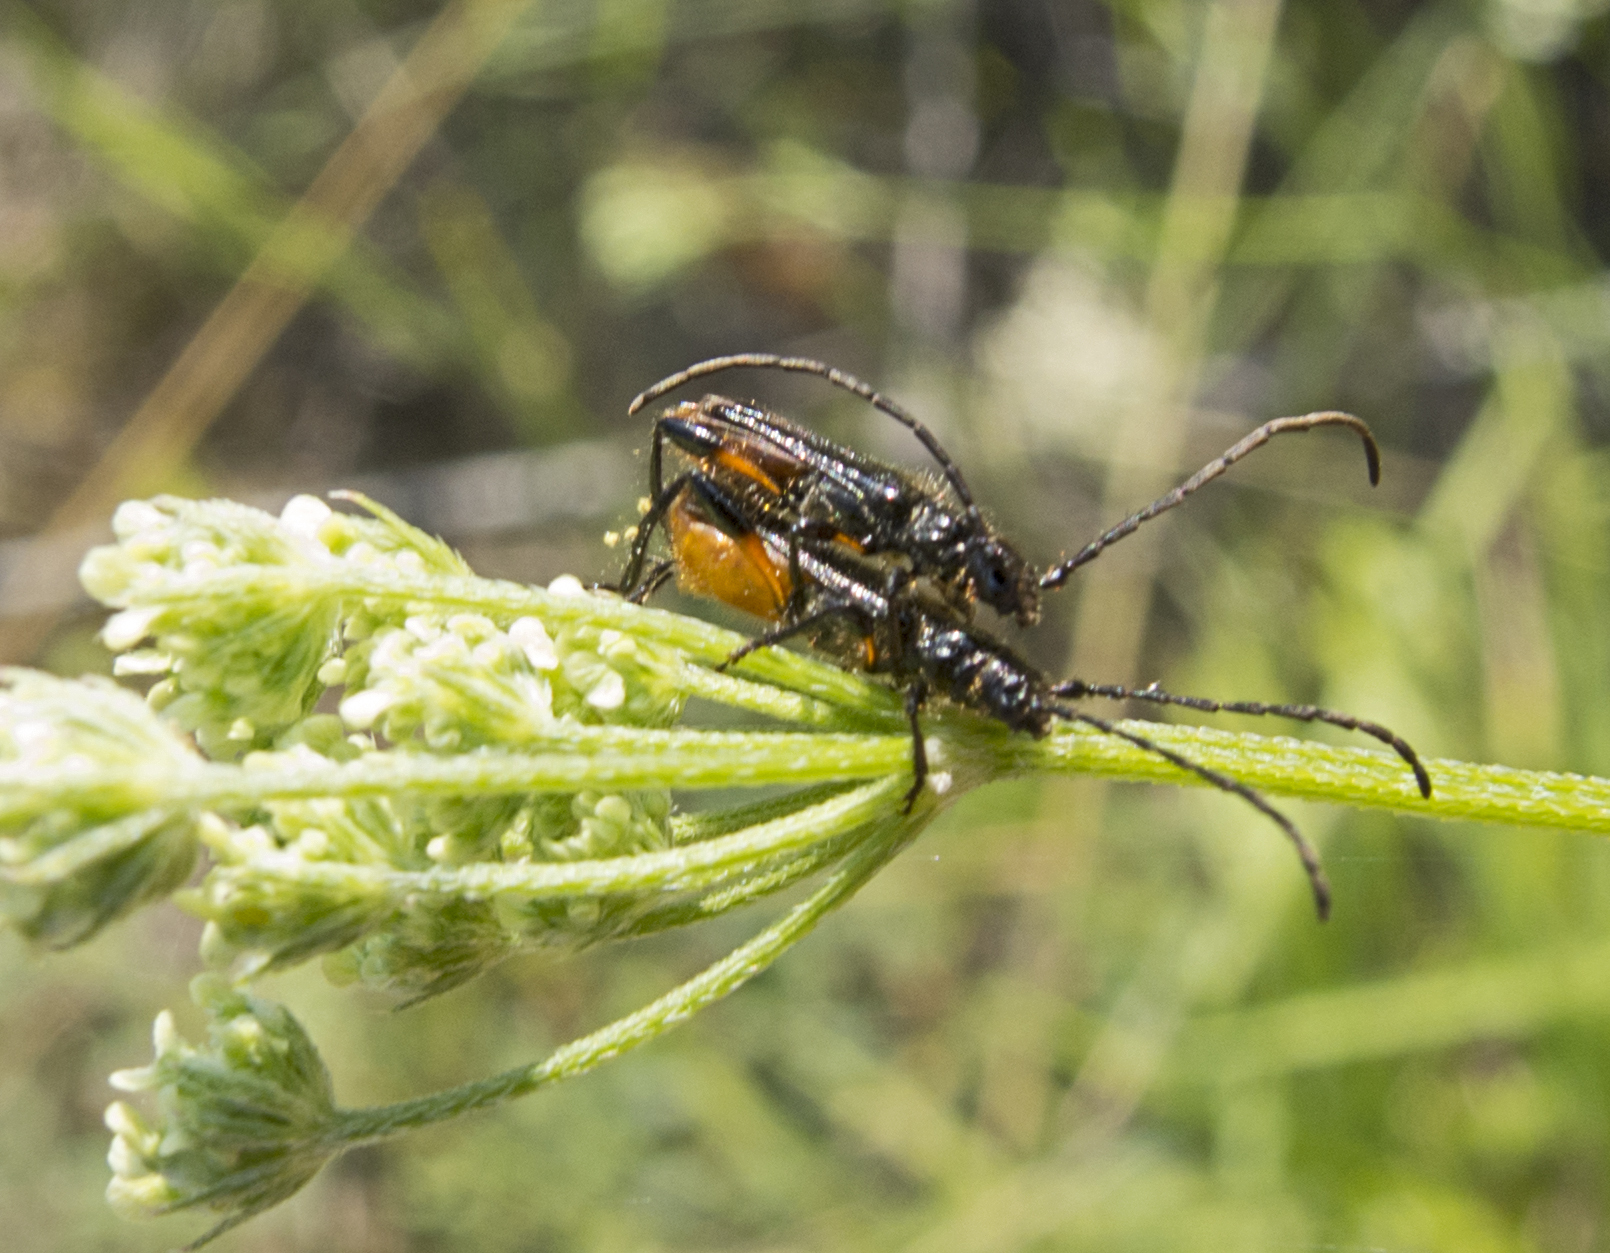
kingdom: Animalia
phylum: Arthropoda
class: Insecta
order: Coleoptera
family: Cerambycidae
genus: Callimus
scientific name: Callimus femoratus
